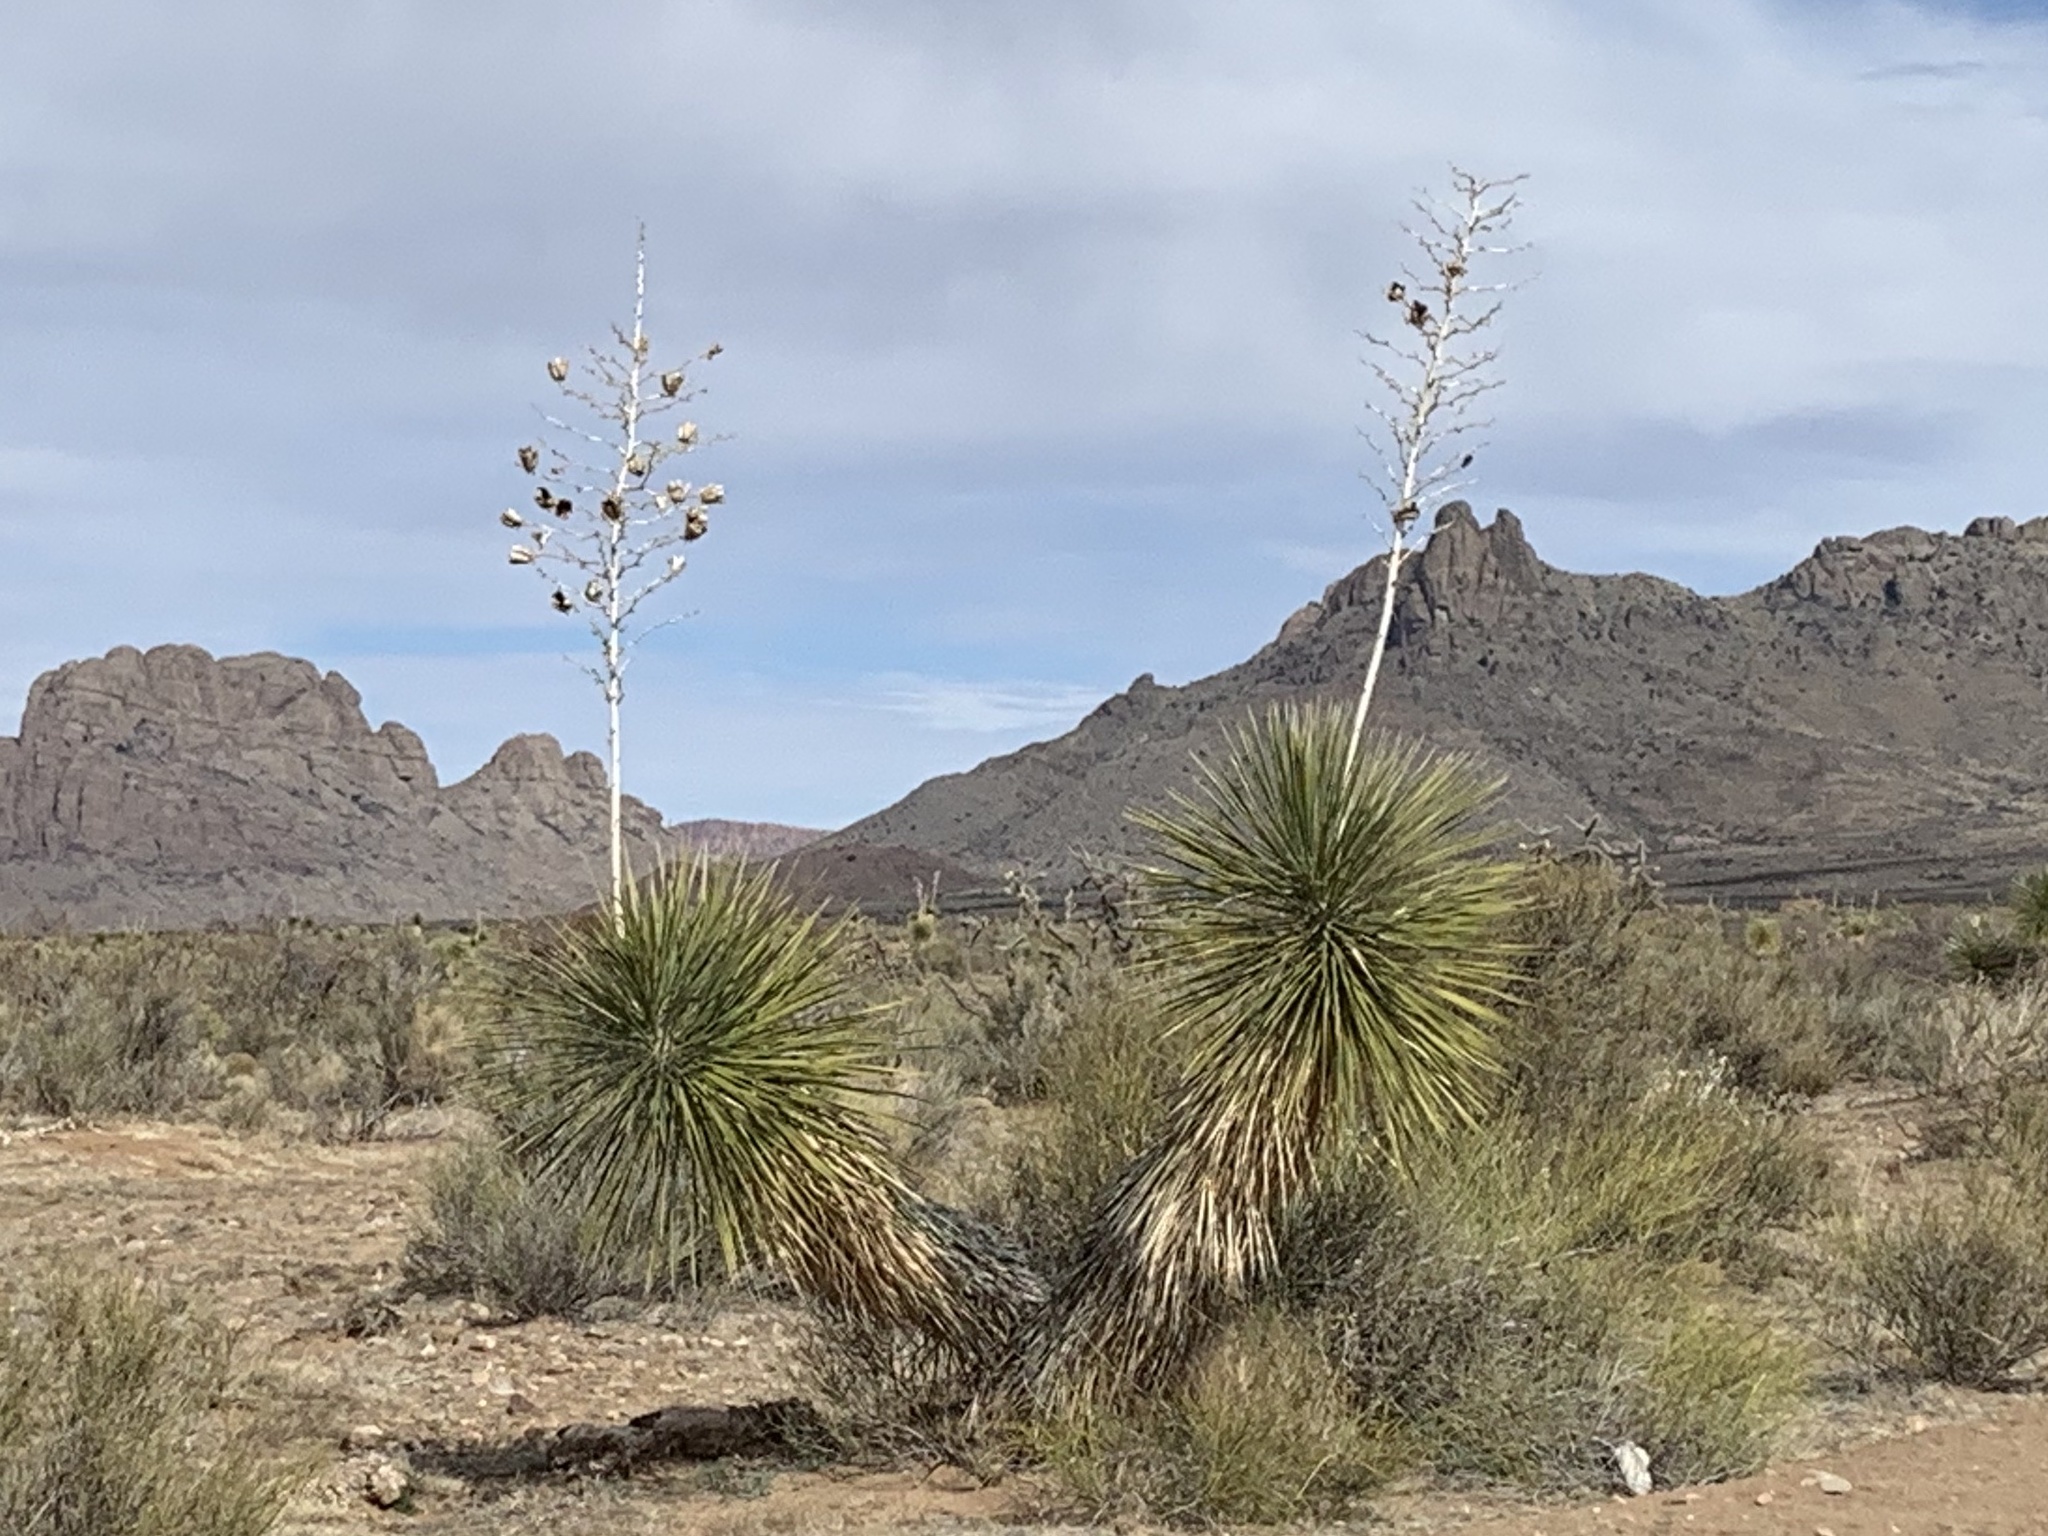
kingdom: Plantae
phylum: Tracheophyta
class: Liliopsida
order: Asparagales
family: Asparagaceae
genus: Yucca
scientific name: Yucca elata
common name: Palmella
